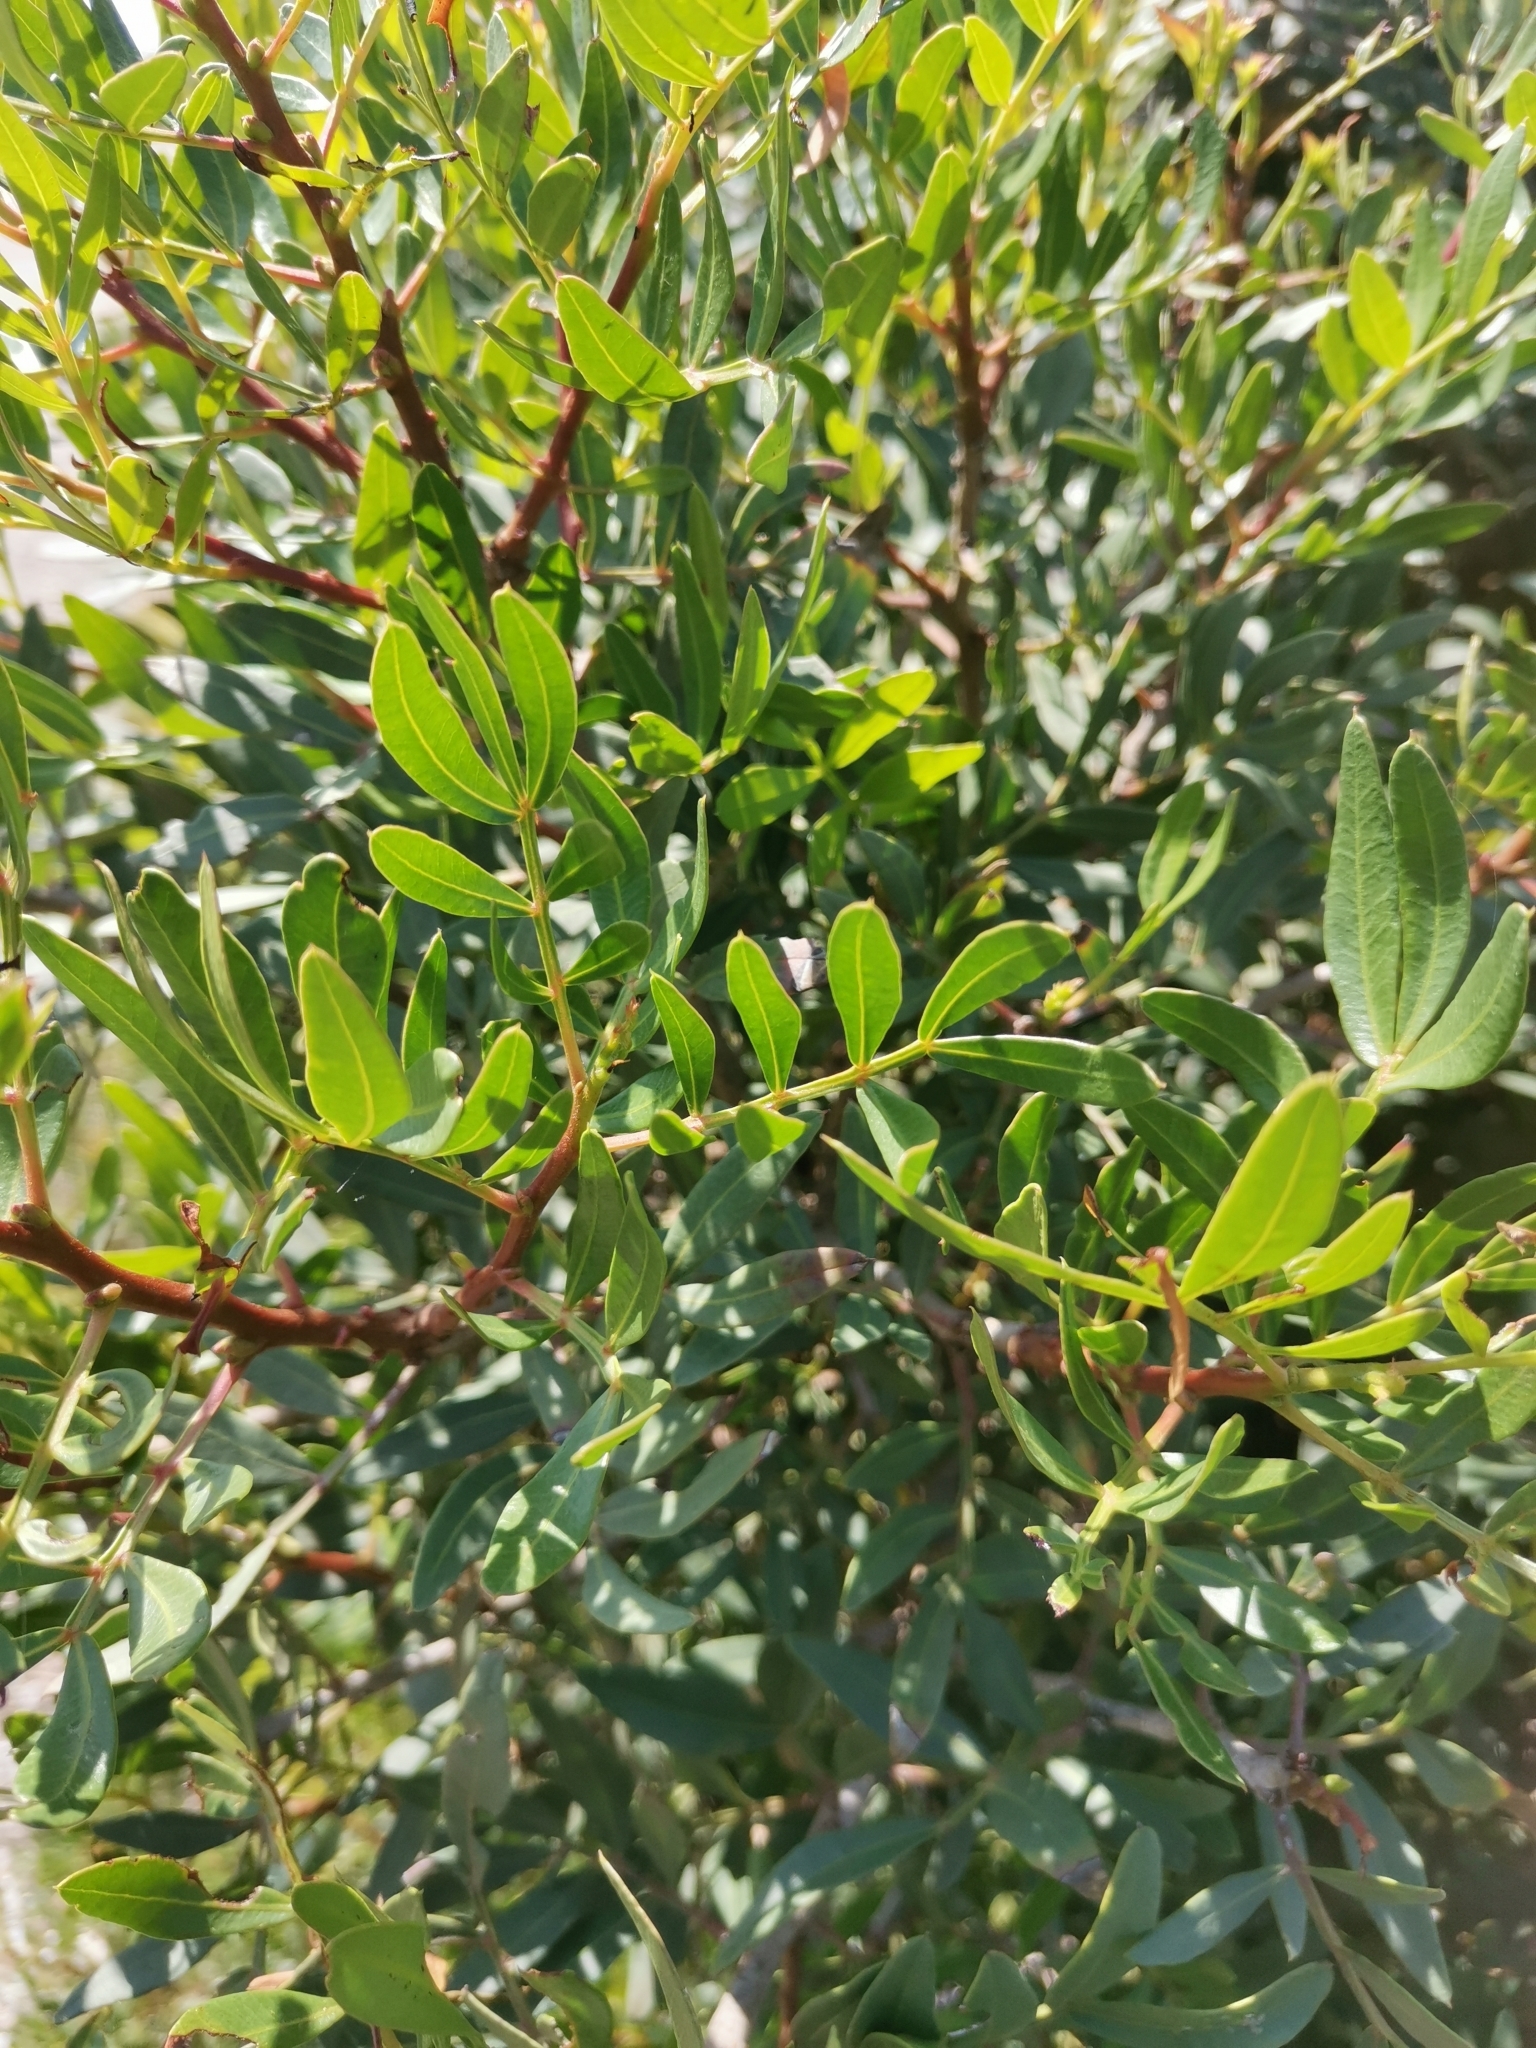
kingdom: Plantae
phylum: Tracheophyta
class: Magnoliopsida
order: Sapindales
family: Anacardiaceae
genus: Pistacia
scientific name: Pistacia lentiscus
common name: Lentisk
